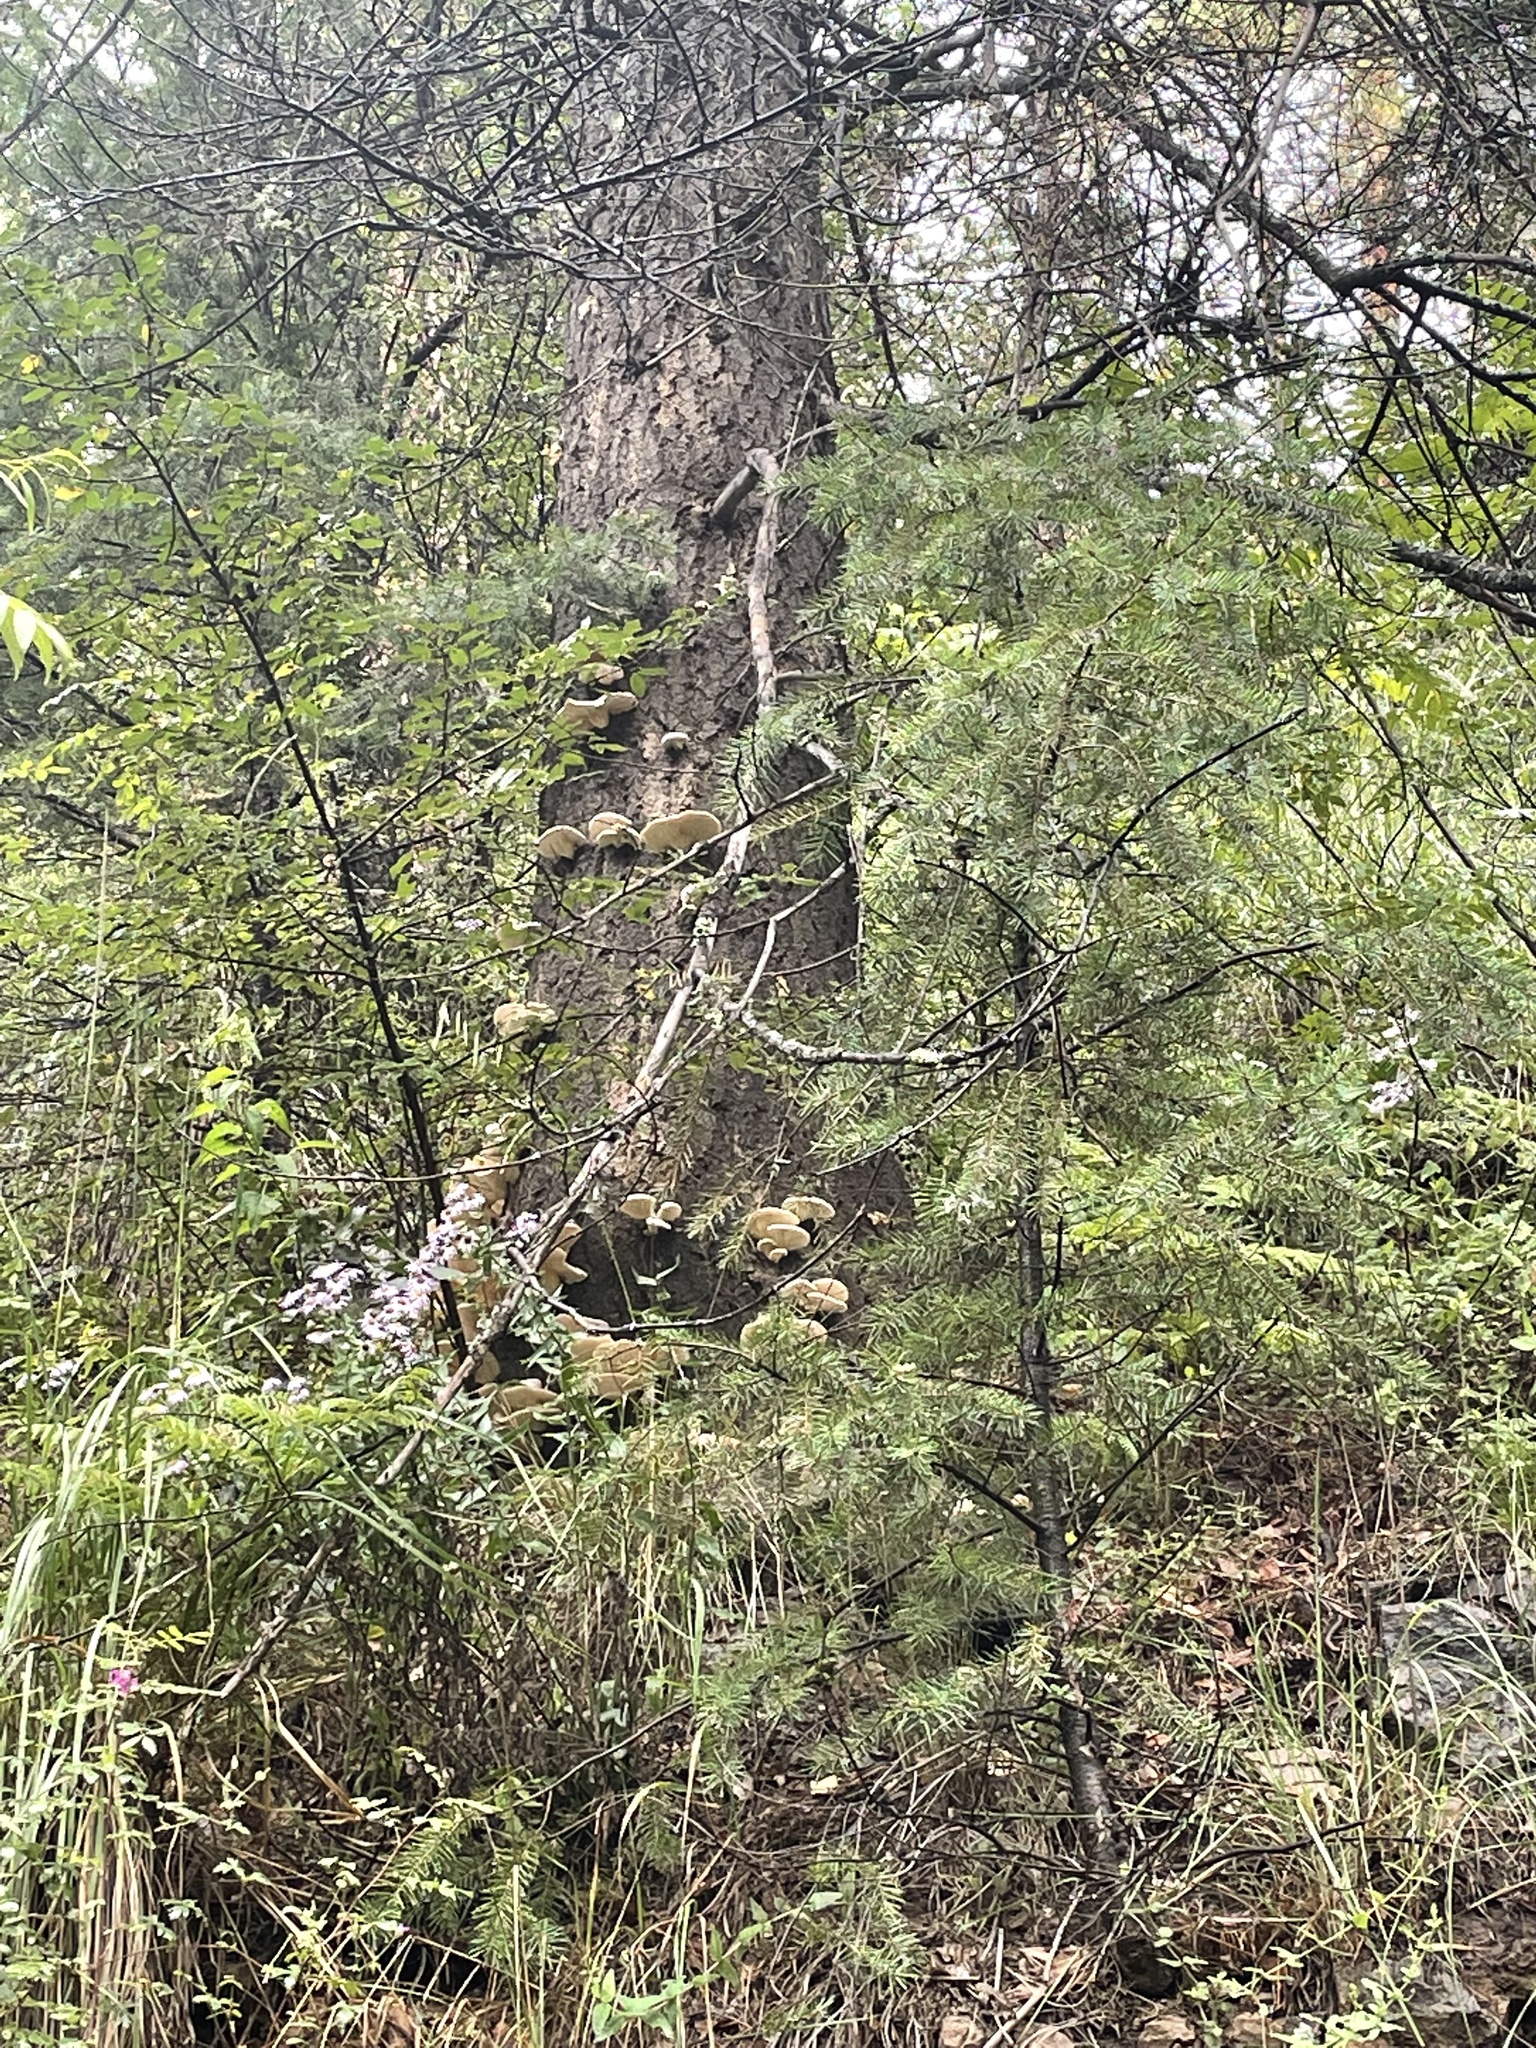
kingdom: Fungi
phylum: Basidiomycota
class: Agaricomycetes
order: Agaricales
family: Pleurotaceae
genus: Pleurotus
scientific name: Pleurotus pulmonarius
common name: Pale oyster
